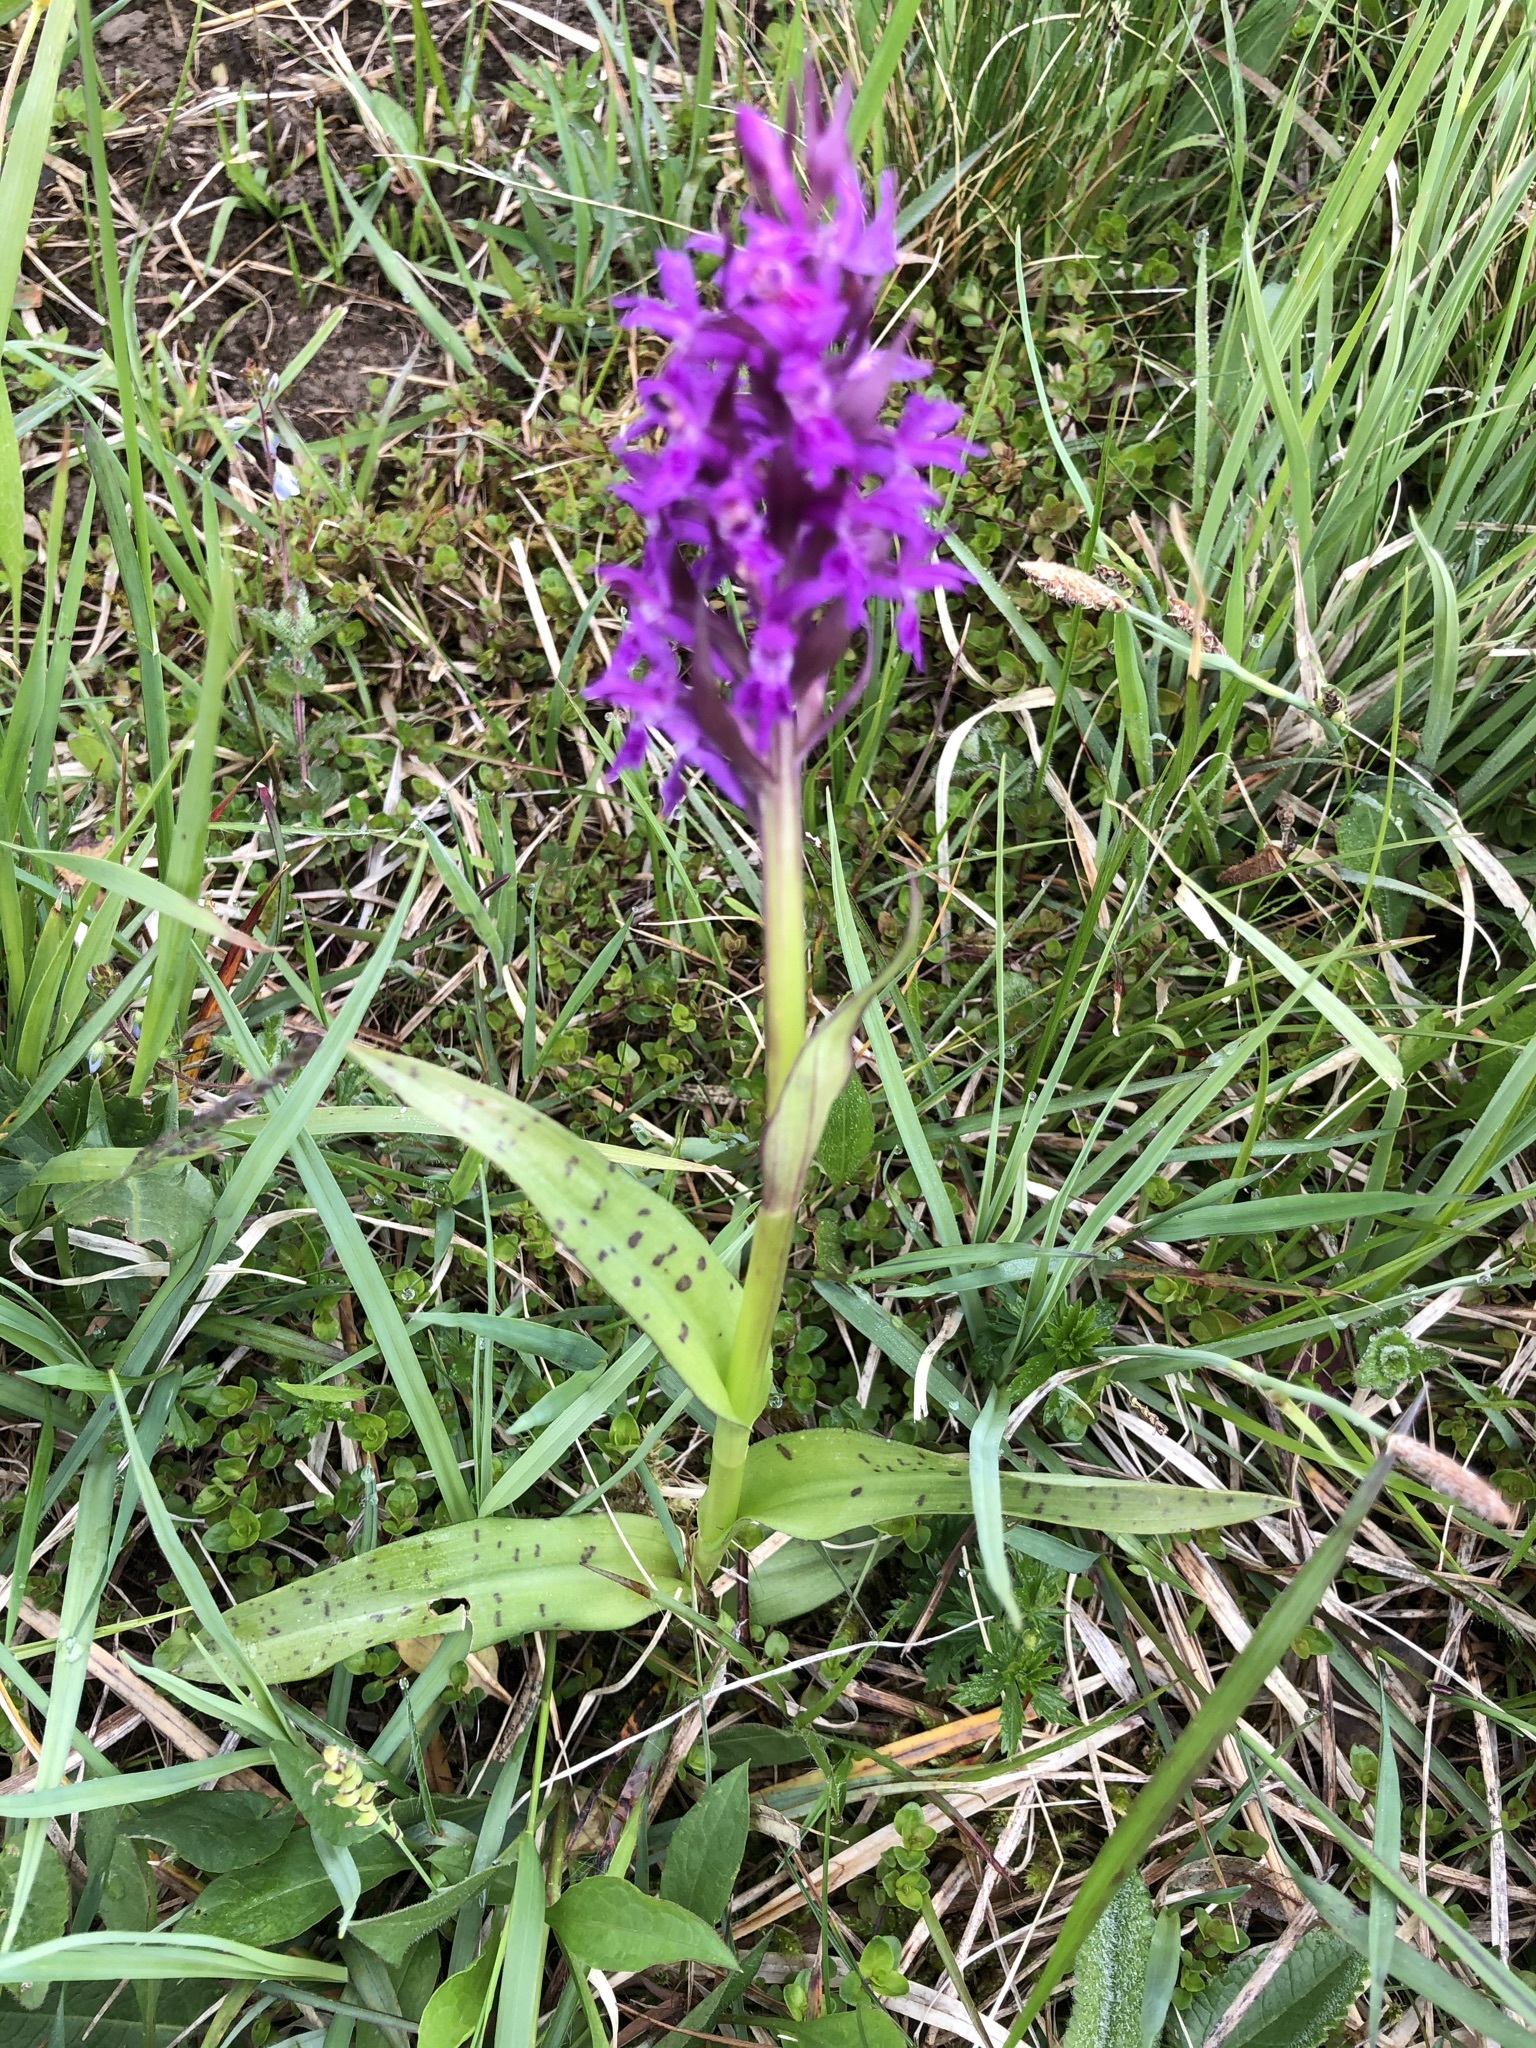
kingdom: Plantae
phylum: Tracheophyta
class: Liliopsida
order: Asparagales
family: Orchidaceae
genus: Dactylorhiza
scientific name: Dactylorhiza majalis
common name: Marsh orchid
